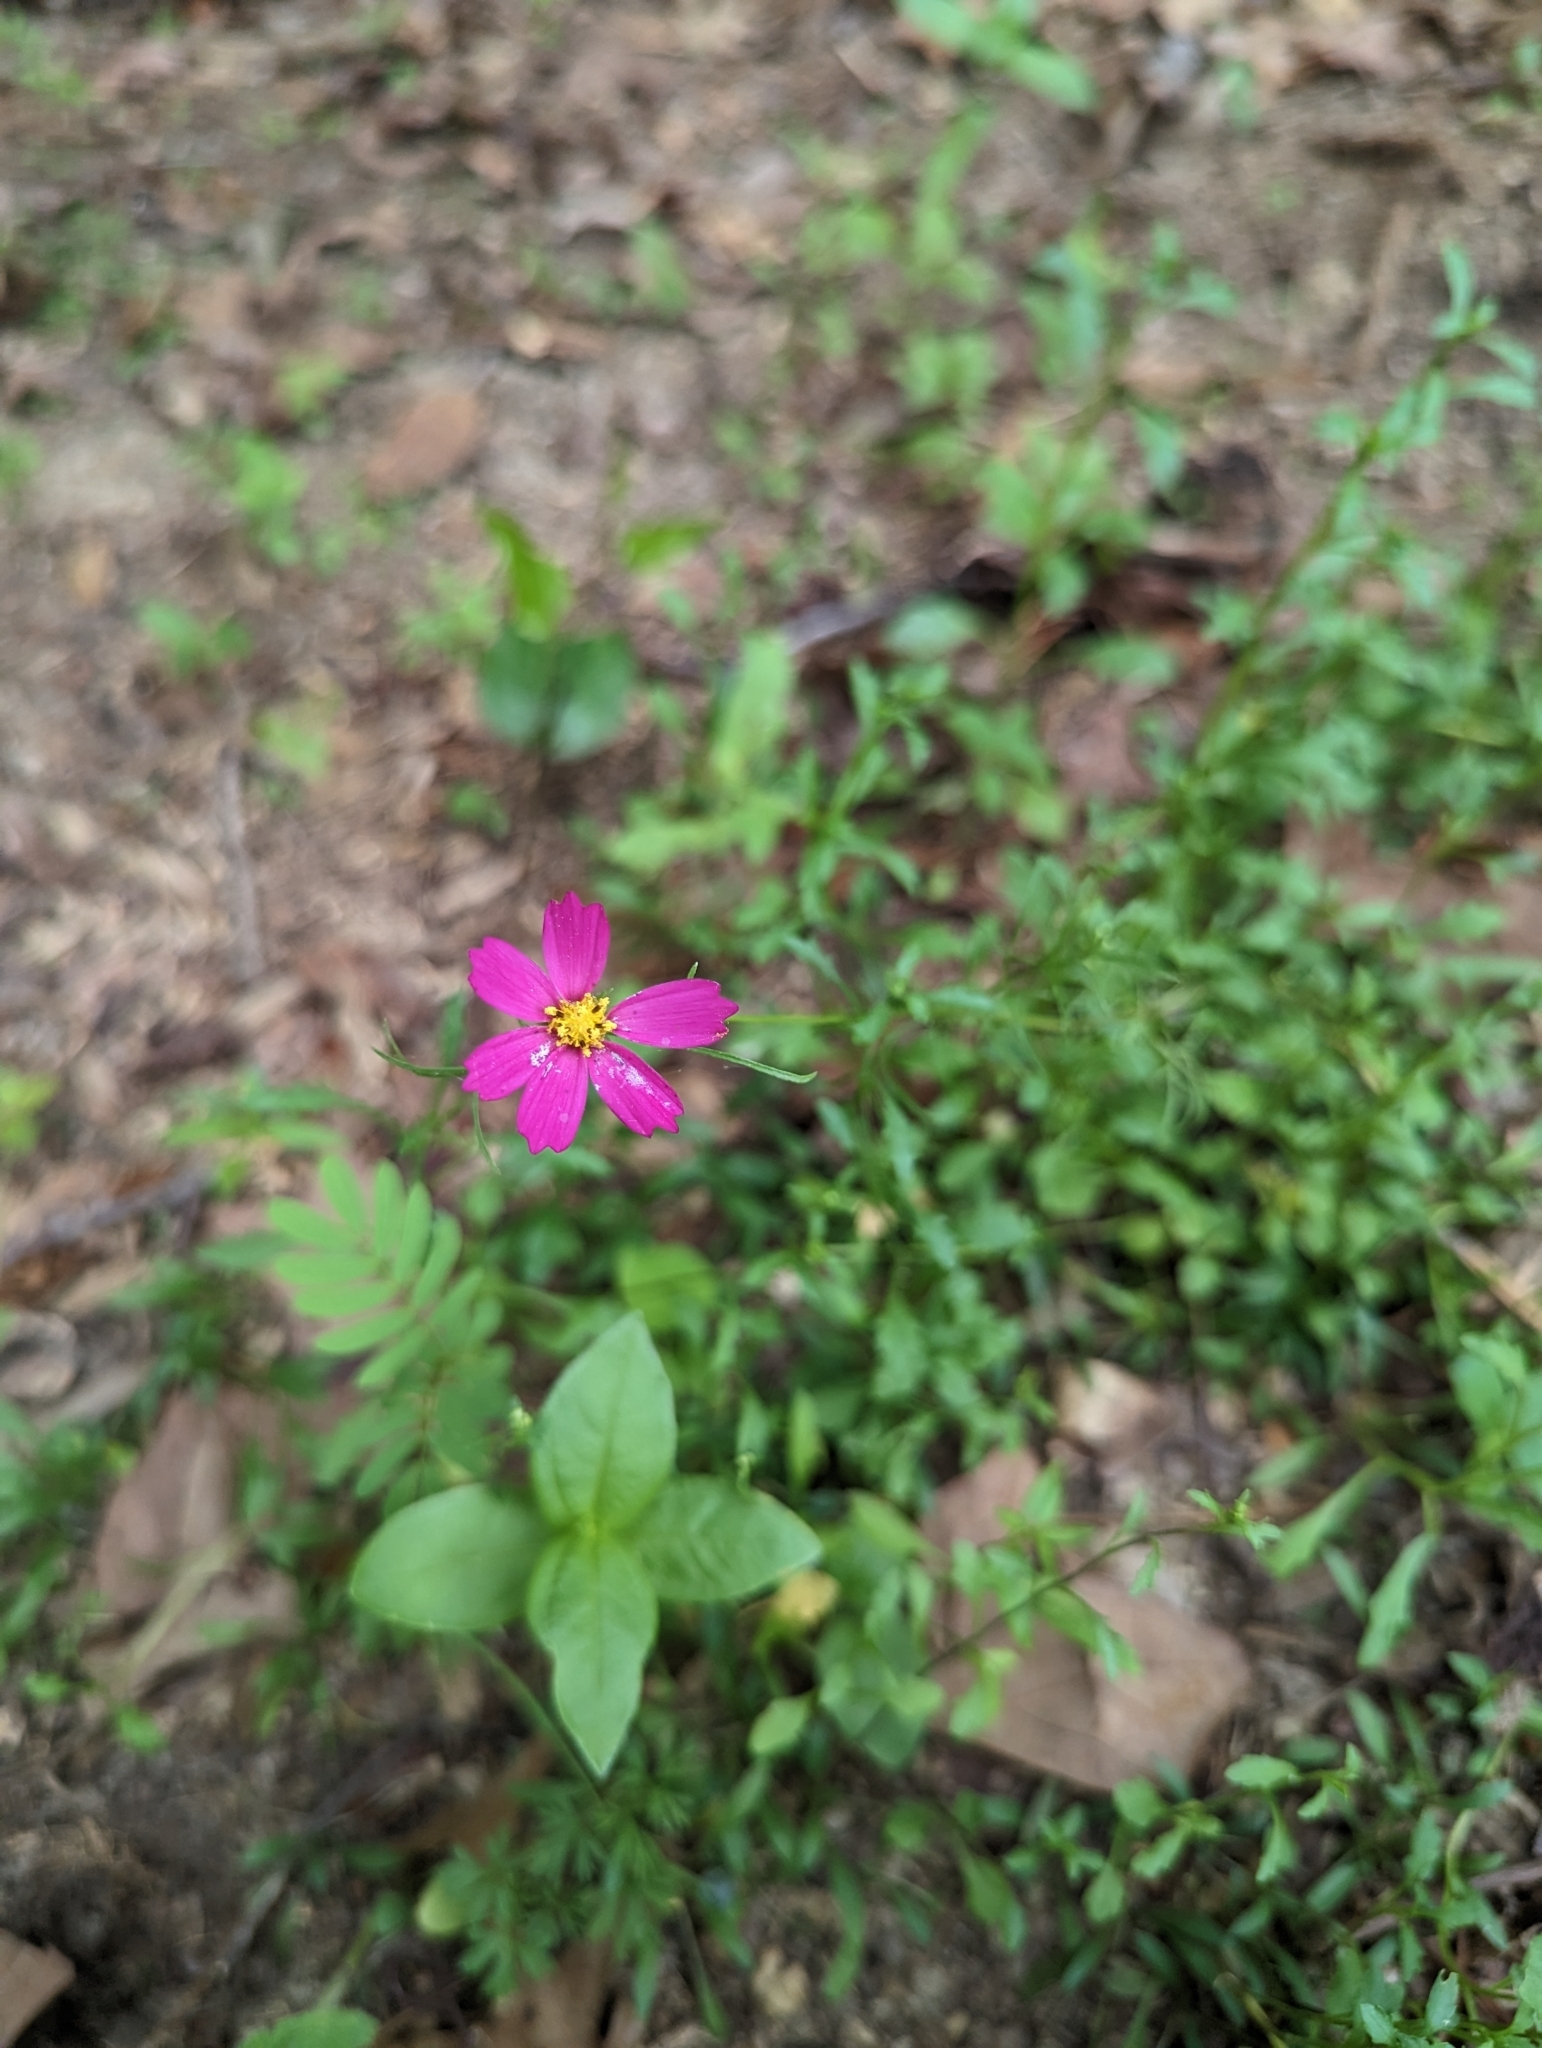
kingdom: Plantae
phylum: Tracheophyta
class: Magnoliopsida
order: Asterales
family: Asteraceae
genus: Cosmos
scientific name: Cosmos bipinnatus
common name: Garden cosmos
